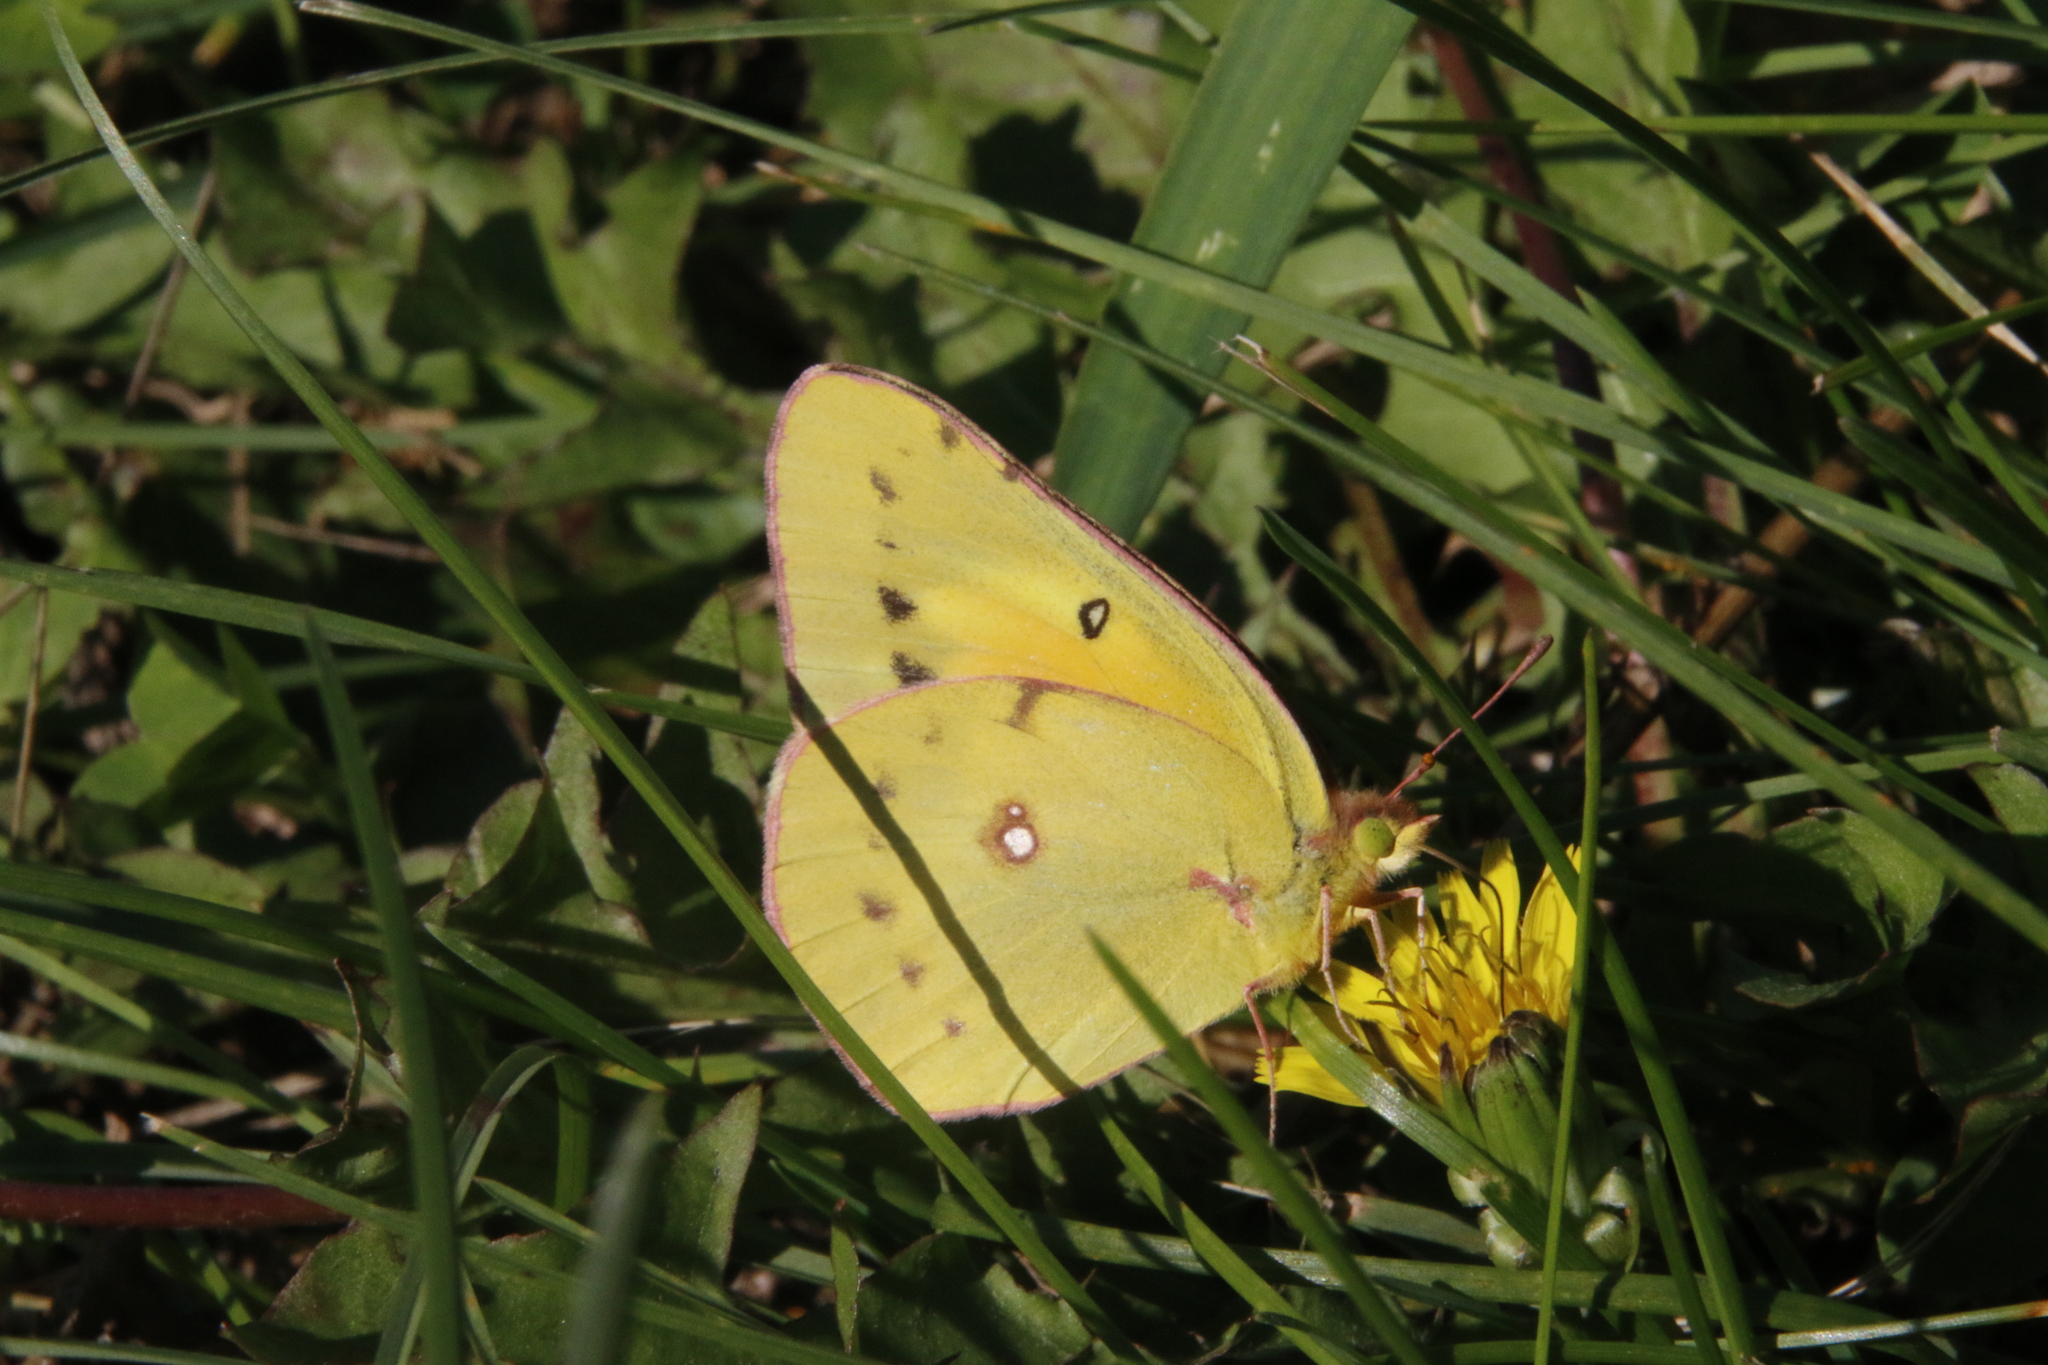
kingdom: Animalia
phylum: Arthropoda
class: Insecta
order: Lepidoptera
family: Pieridae
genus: Colias
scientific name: Colias eurytheme
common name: Alfalfa butterfly
